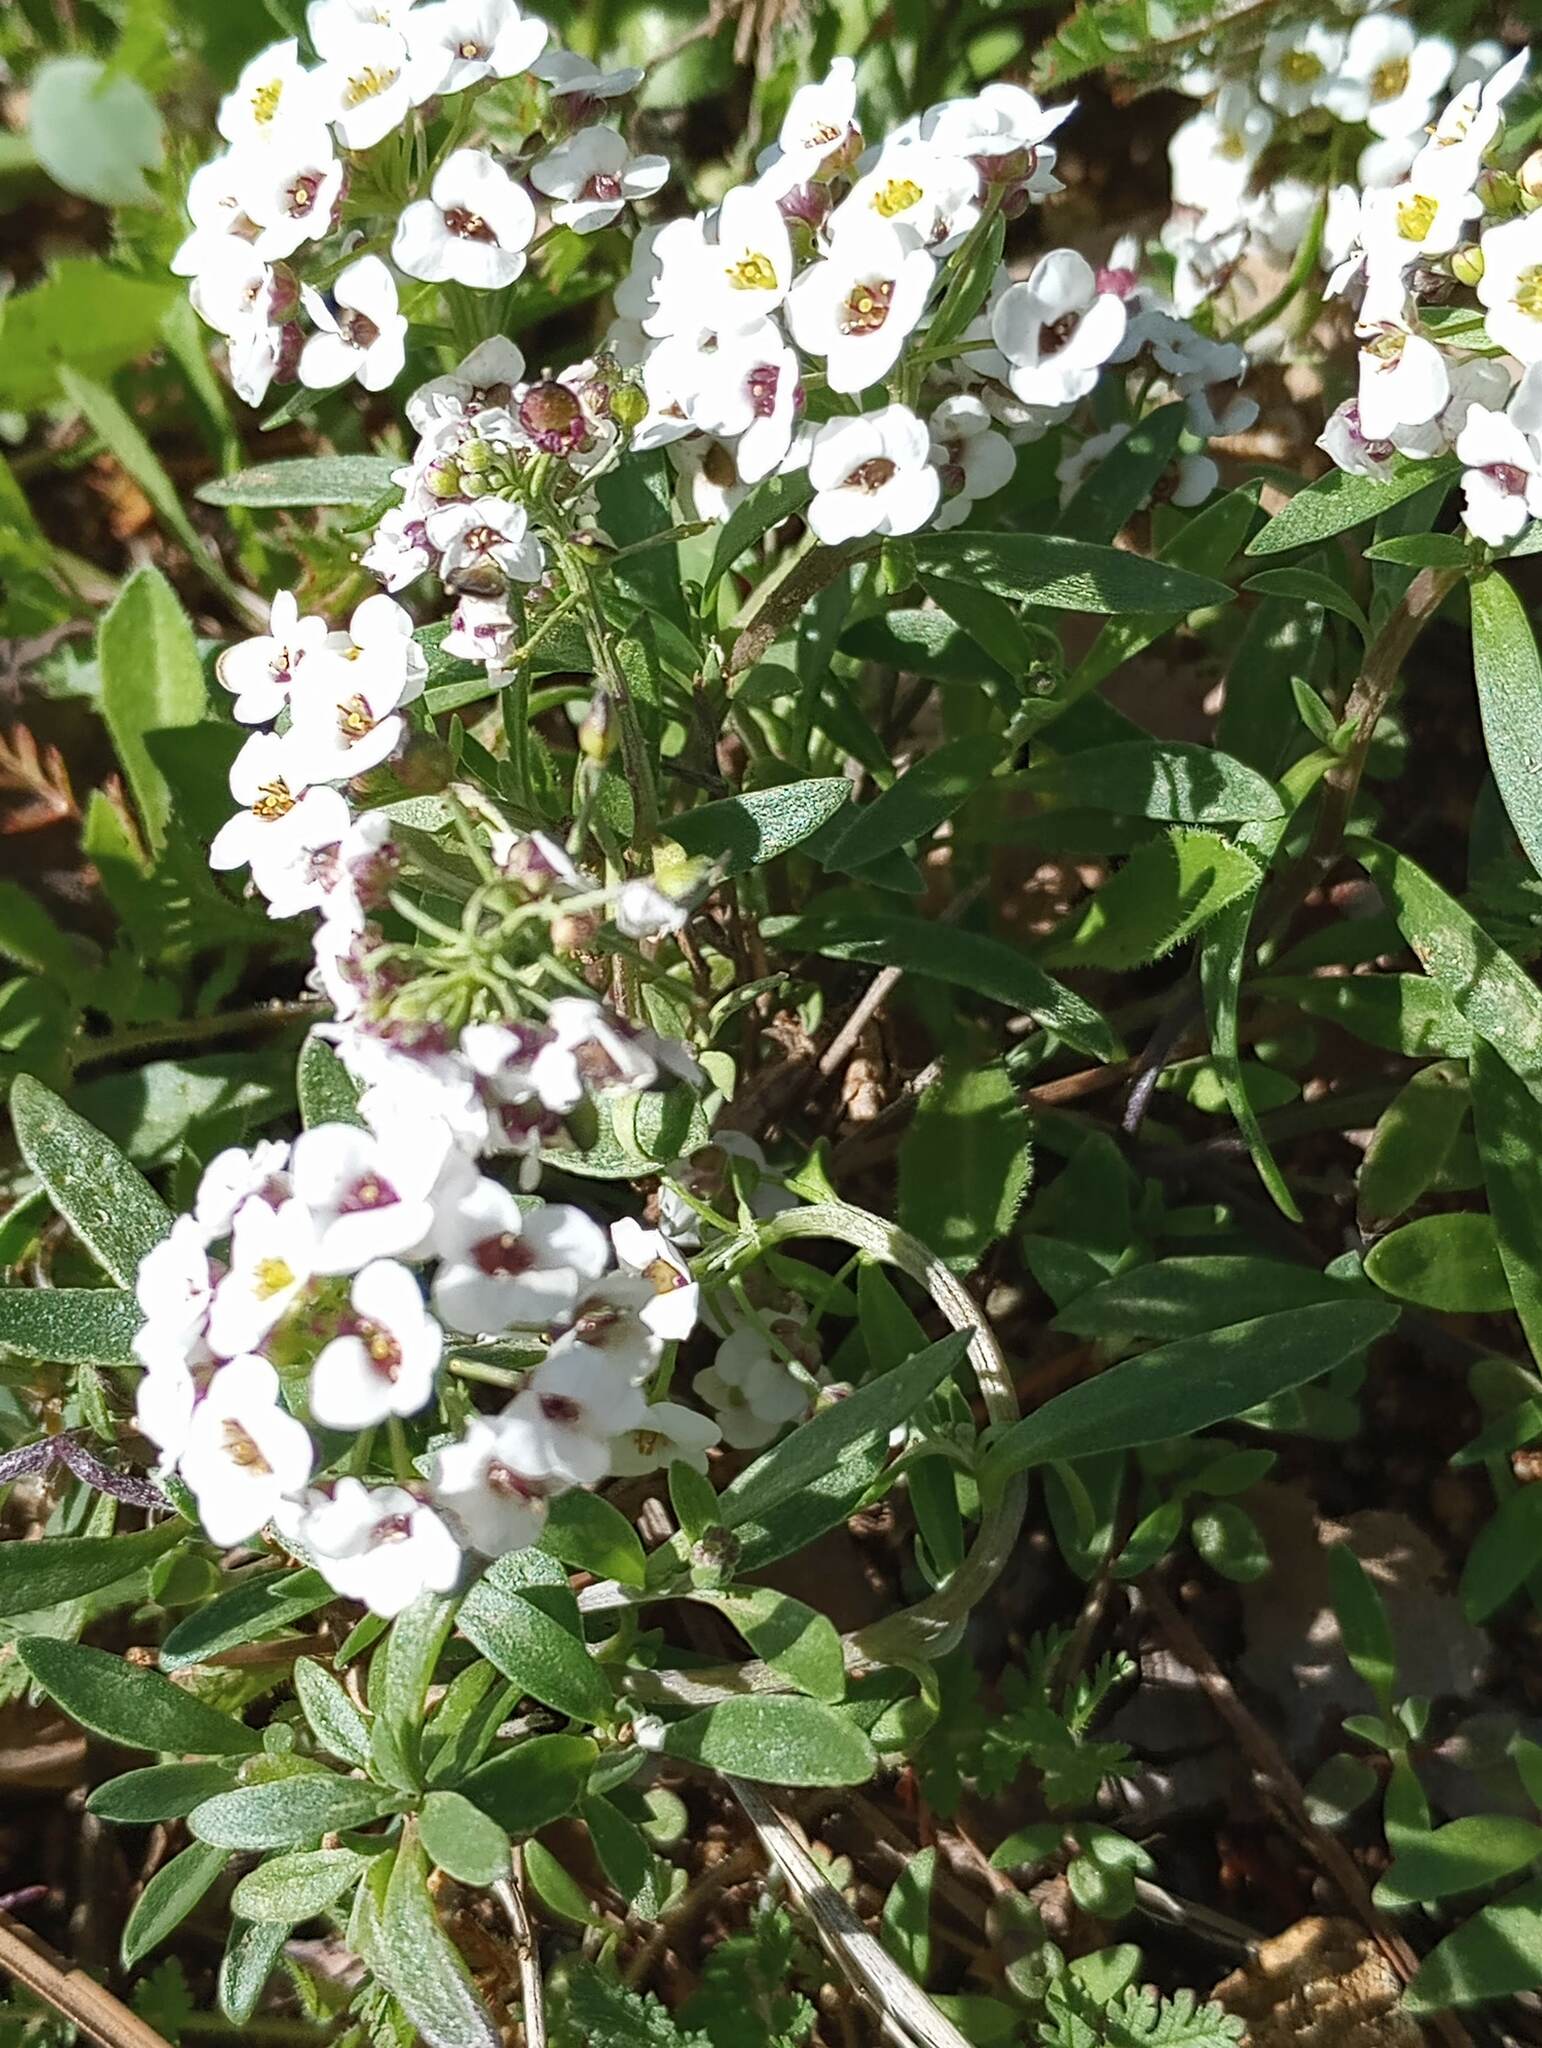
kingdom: Plantae
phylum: Tracheophyta
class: Magnoliopsida
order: Brassicales
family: Brassicaceae
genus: Lobularia
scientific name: Lobularia maritima
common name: Sweet alison
